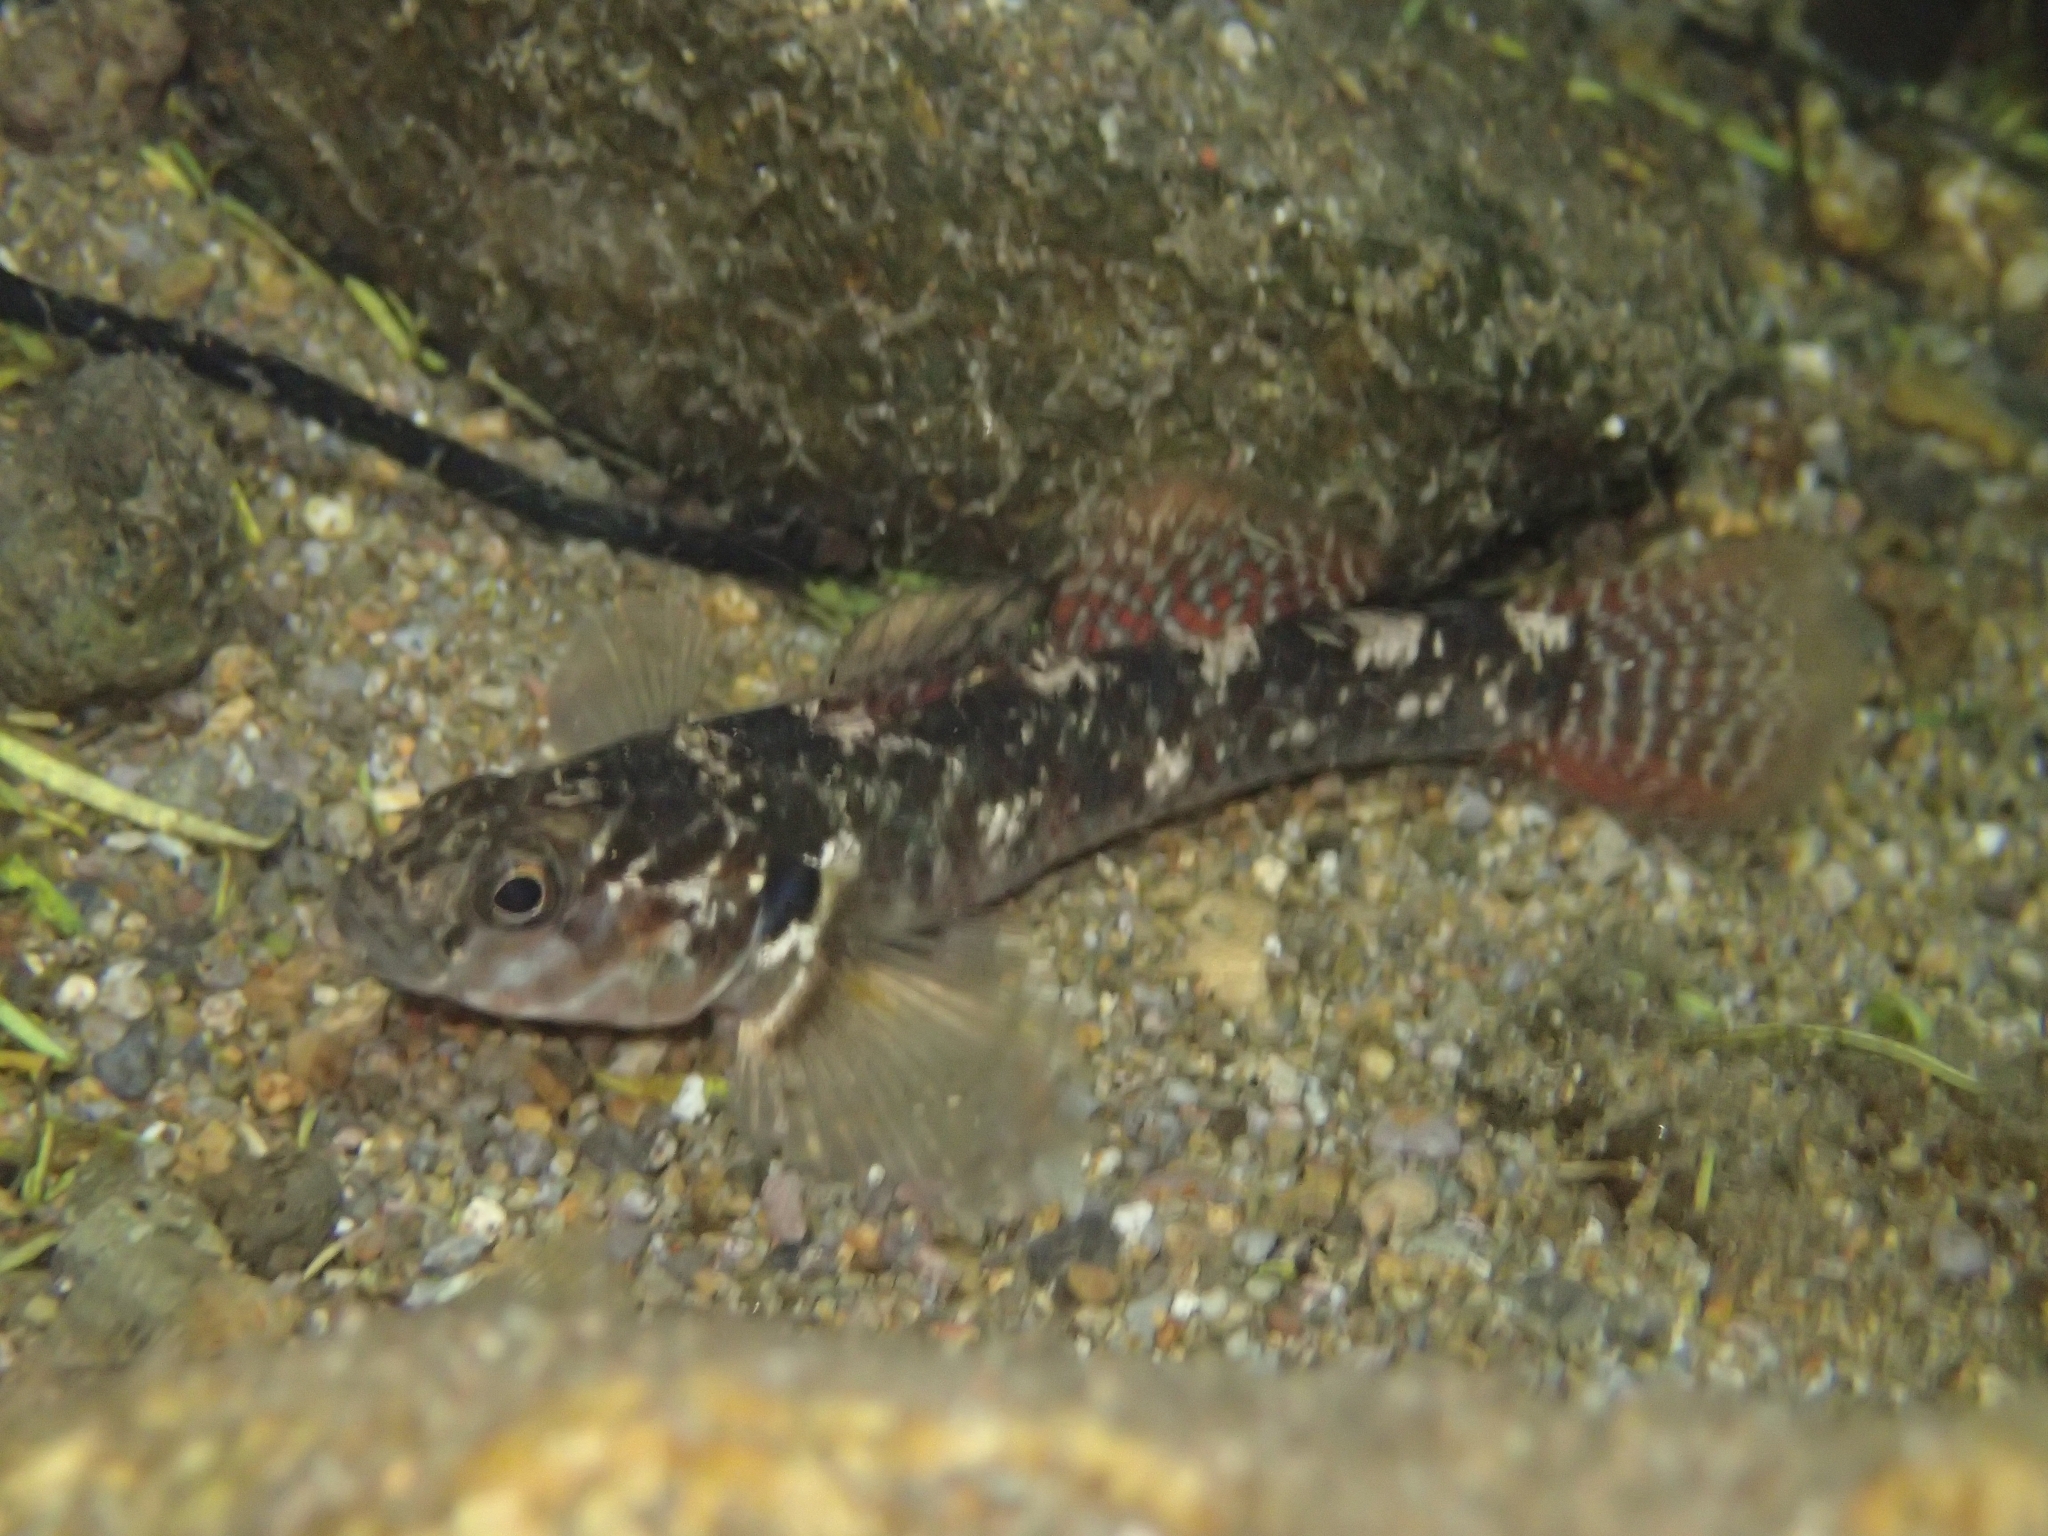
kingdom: Animalia
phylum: Chordata
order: Perciformes
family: Eleotridae
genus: Gobiomorphus
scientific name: Gobiomorphus huttoni
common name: Redfin bully
